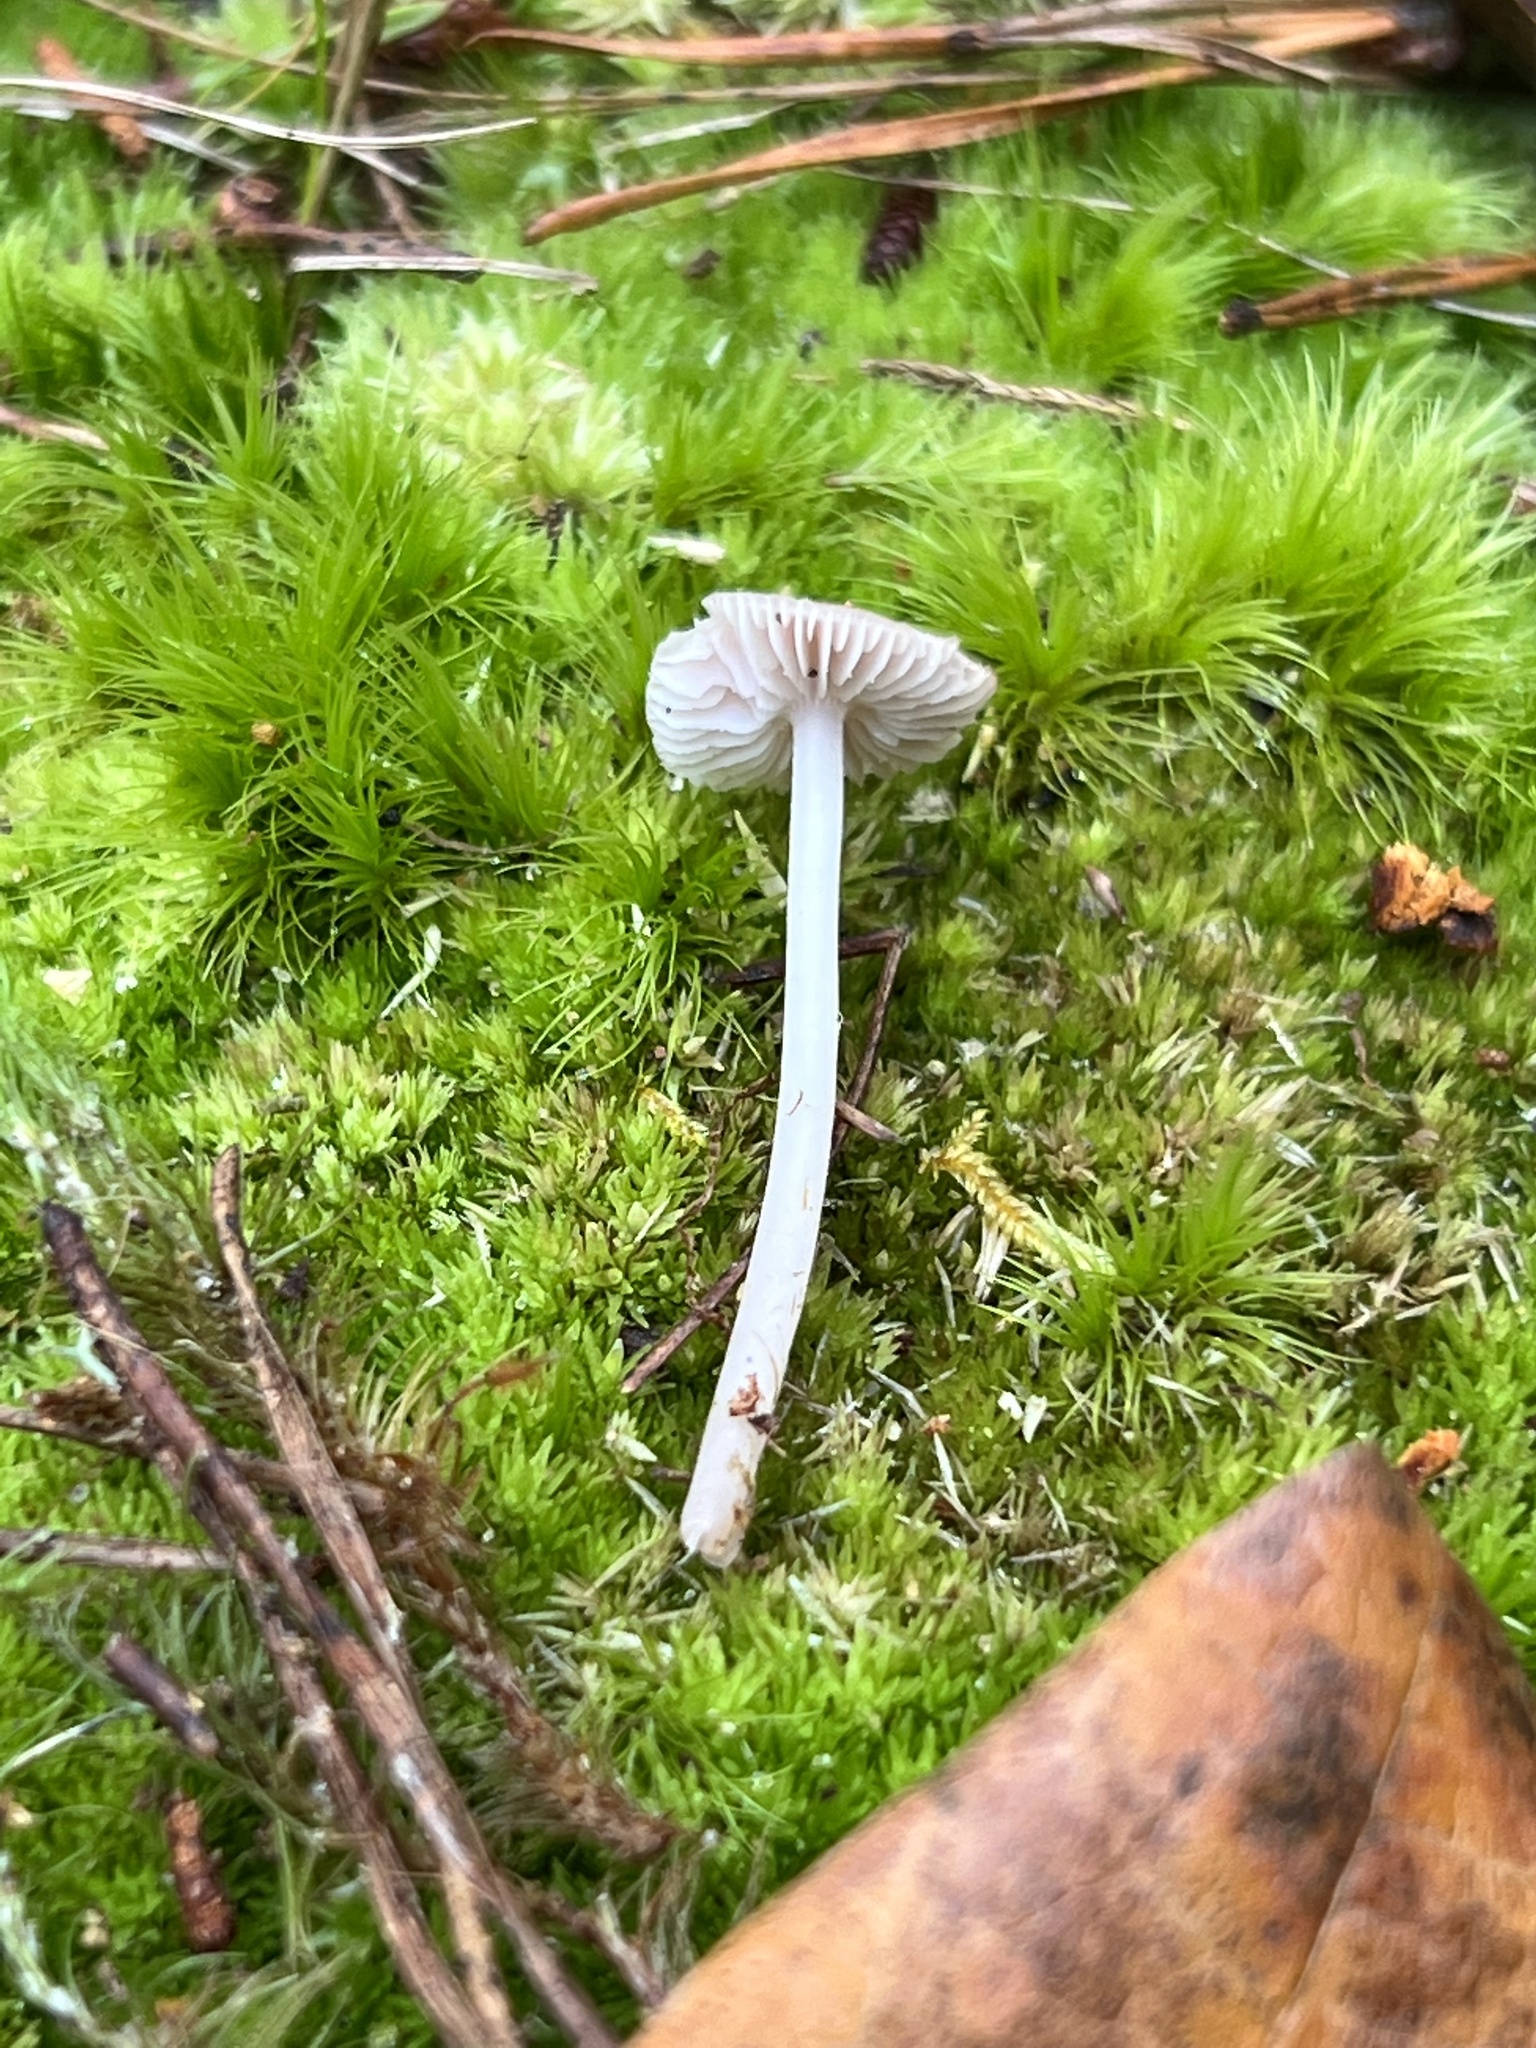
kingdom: Fungi
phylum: Basidiomycota
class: Agaricomycetes
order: Agaricales
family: Mycenaceae
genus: Mycena
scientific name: Mycena pura
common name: Lilac bonnet
